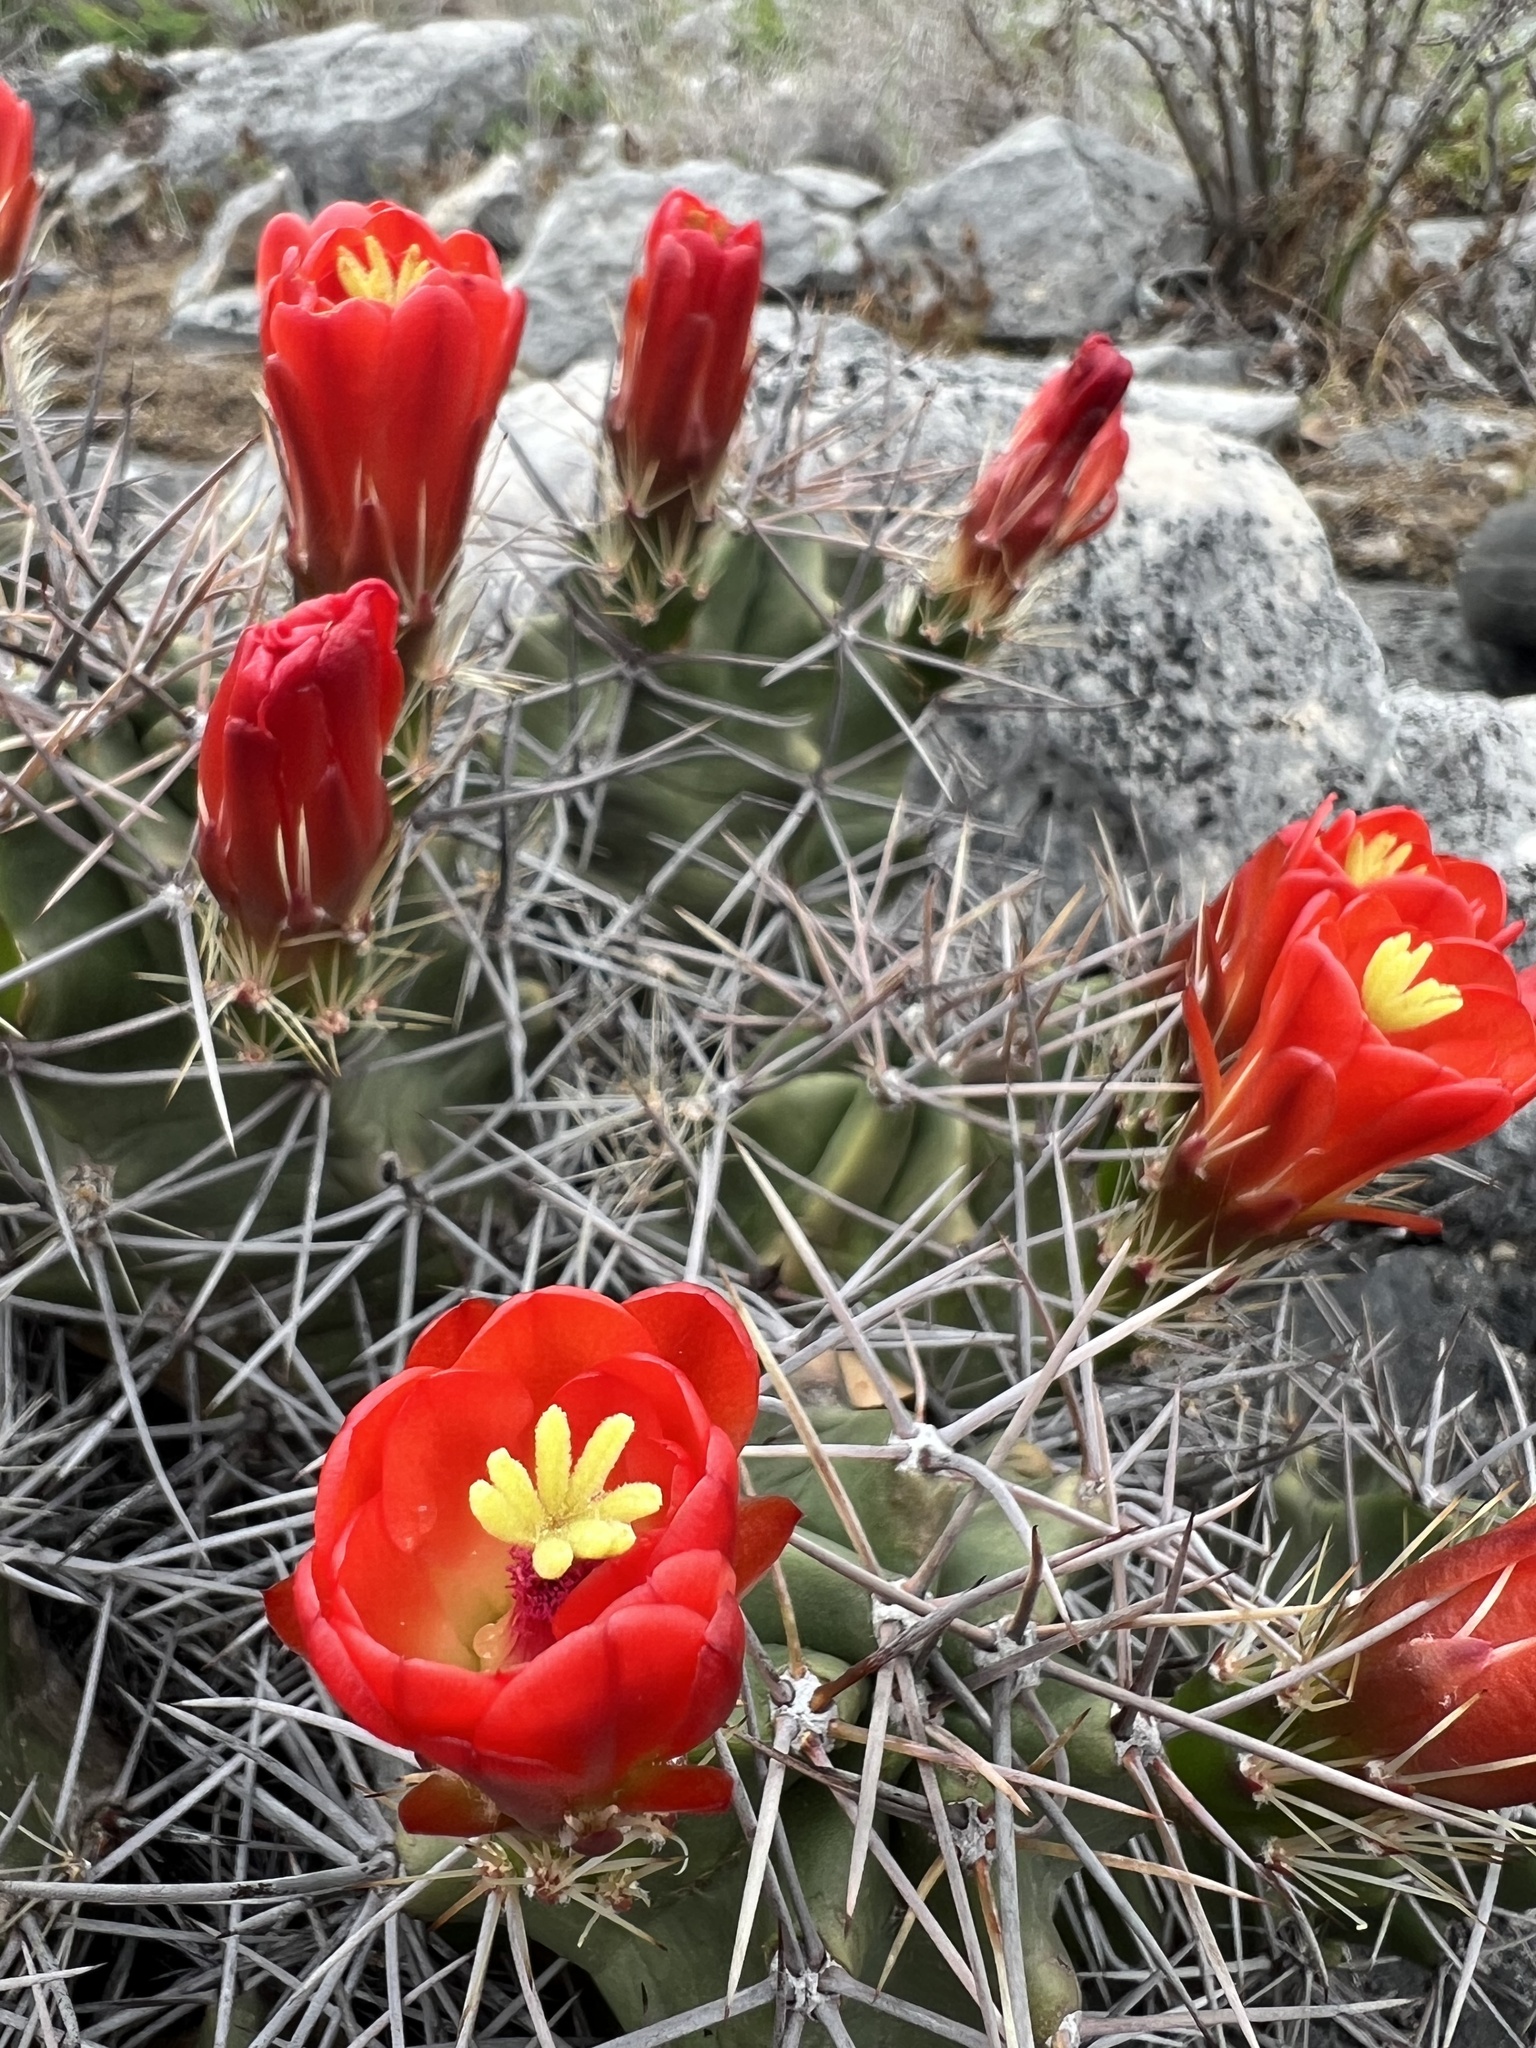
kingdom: Plantae
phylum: Tracheophyta
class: Magnoliopsida
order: Caryophyllales
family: Cactaceae
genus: Echinocereus
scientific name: Echinocereus coccineus
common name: Scarlet hedgehog cactus
